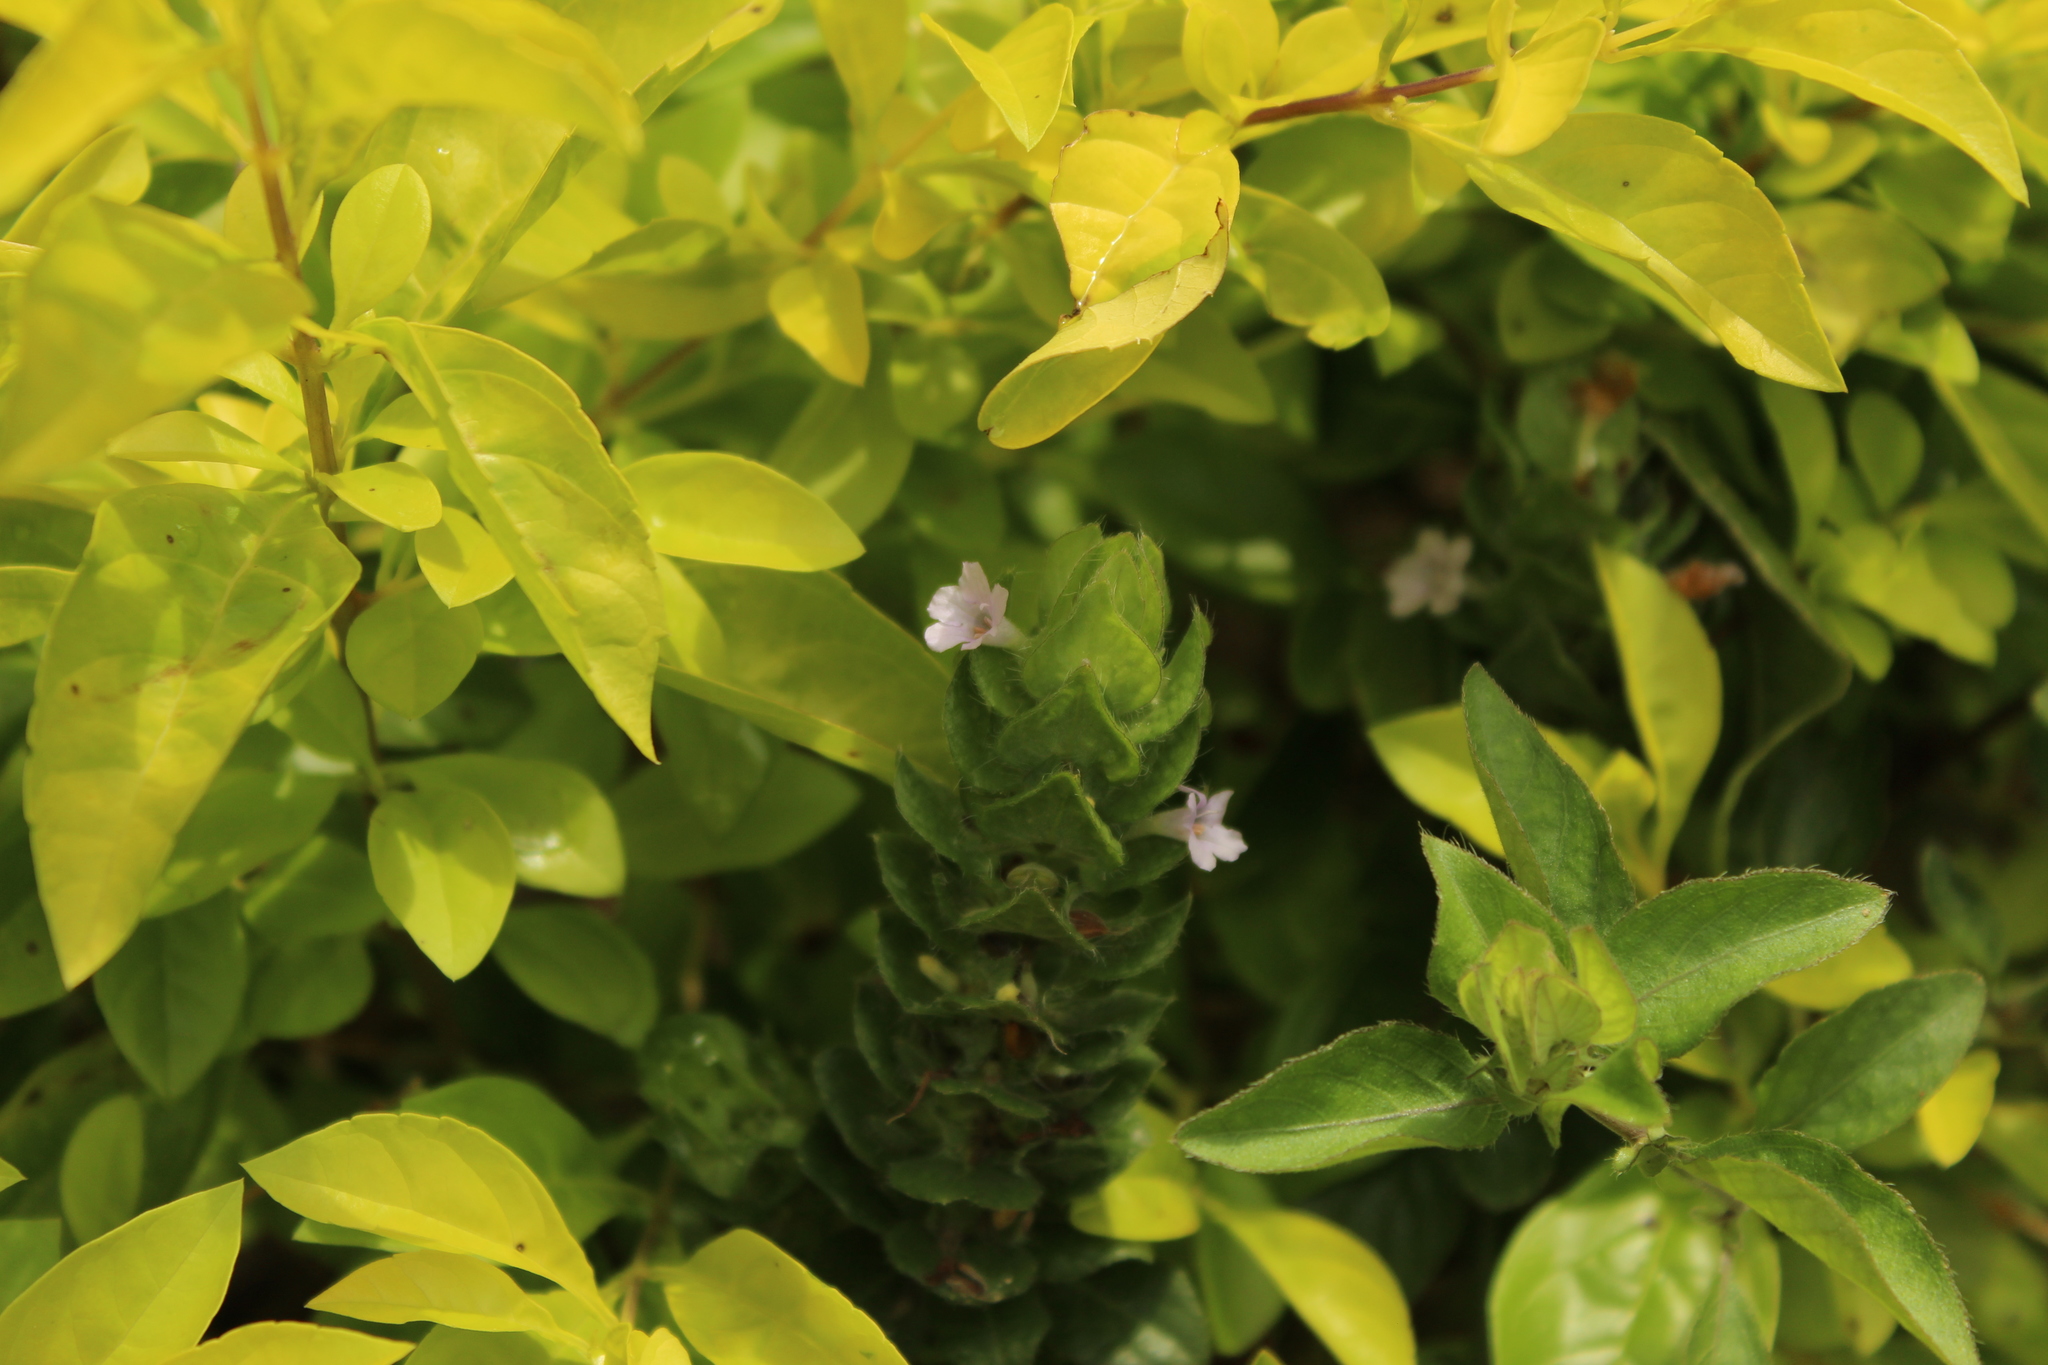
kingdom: Plantae
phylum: Tracheophyta
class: Magnoliopsida
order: Lamiales
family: Acanthaceae
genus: Ruellia
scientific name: Ruellia blechum
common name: Browne's blechum
